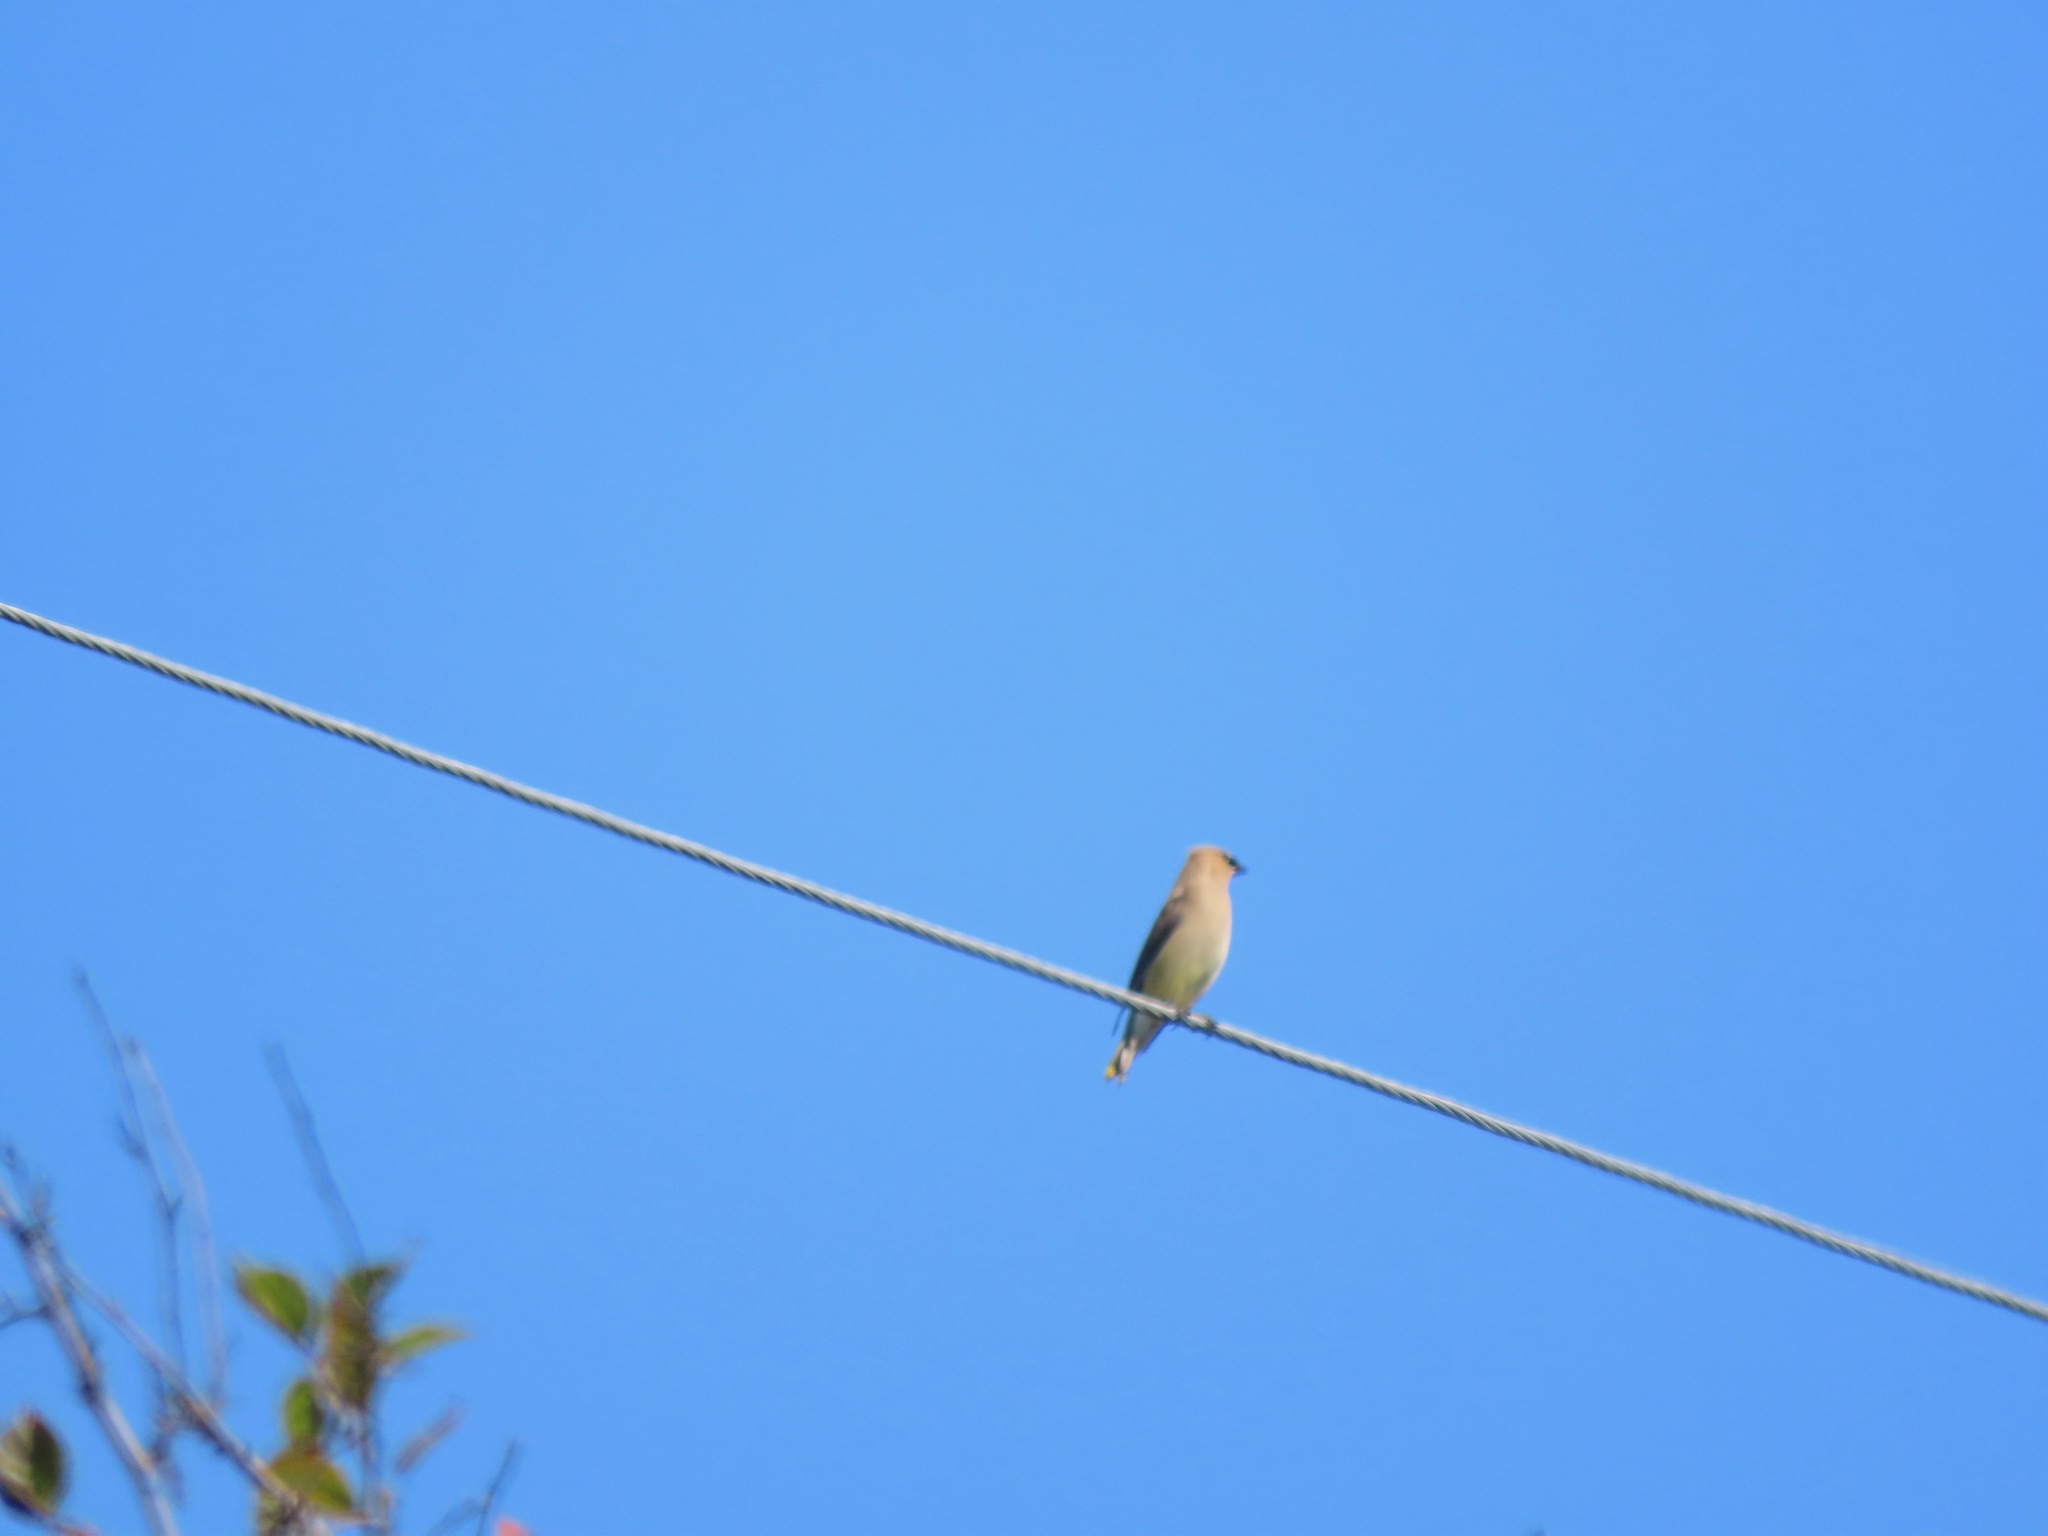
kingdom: Animalia
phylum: Chordata
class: Aves
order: Passeriformes
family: Bombycillidae
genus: Bombycilla
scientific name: Bombycilla cedrorum
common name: Cedar waxwing
